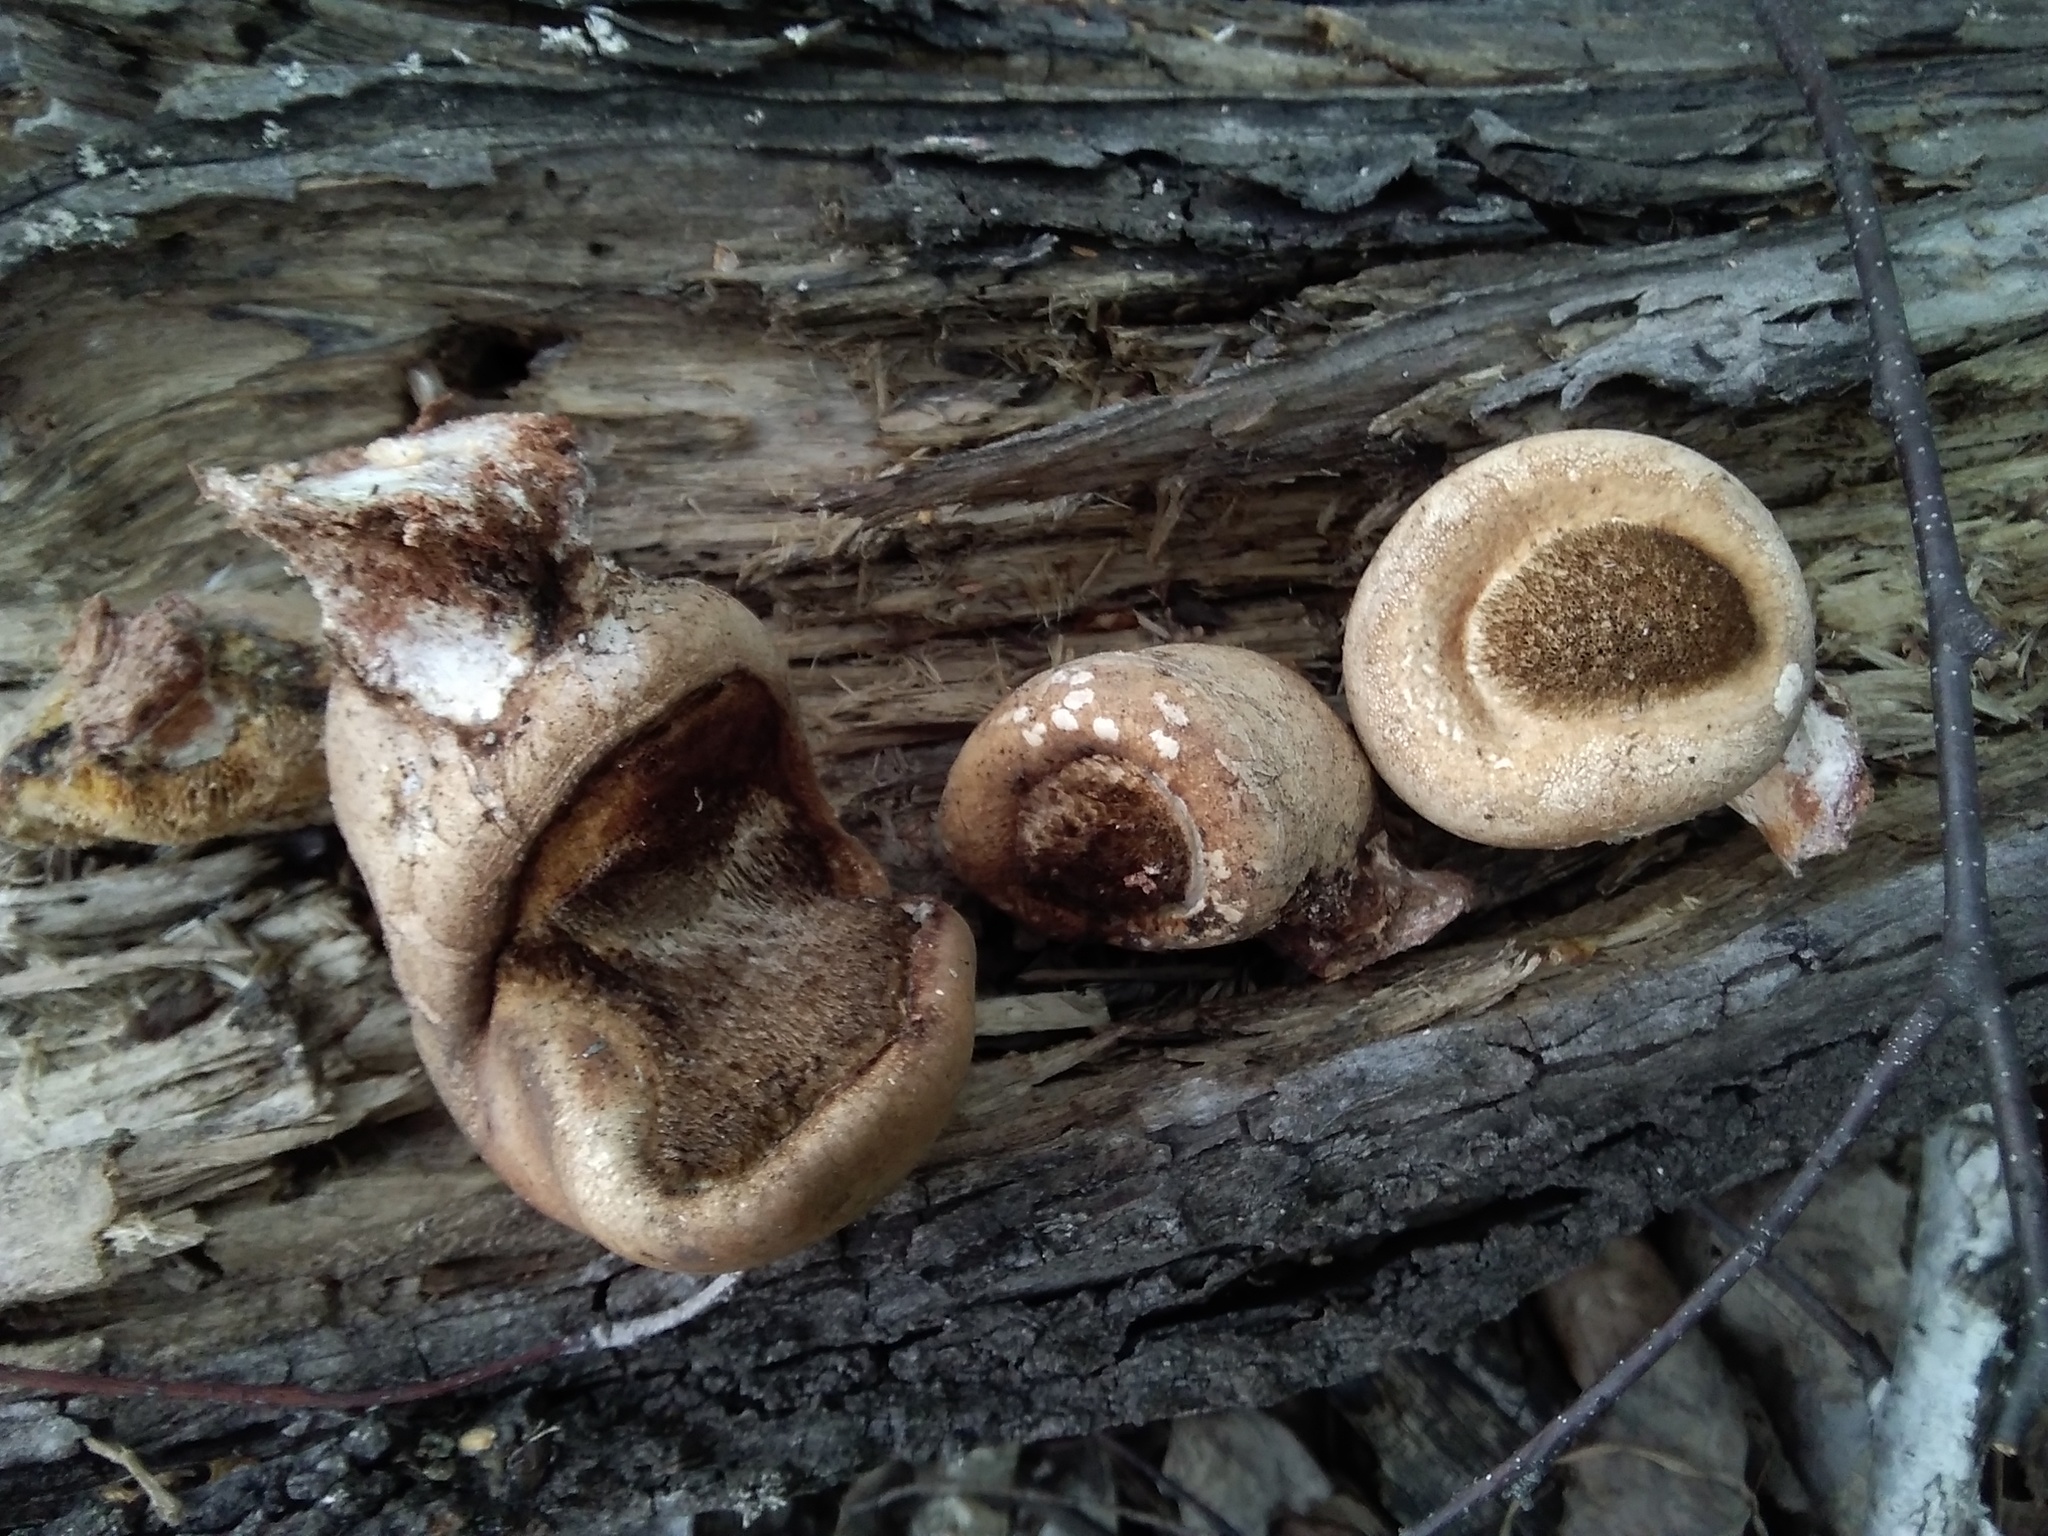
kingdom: Fungi
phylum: Basidiomycota
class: Agaricomycetes
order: Polyporales
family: Fomitopsidaceae
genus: Fomitopsis
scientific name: Fomitopsis betulina
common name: Birch polypore
